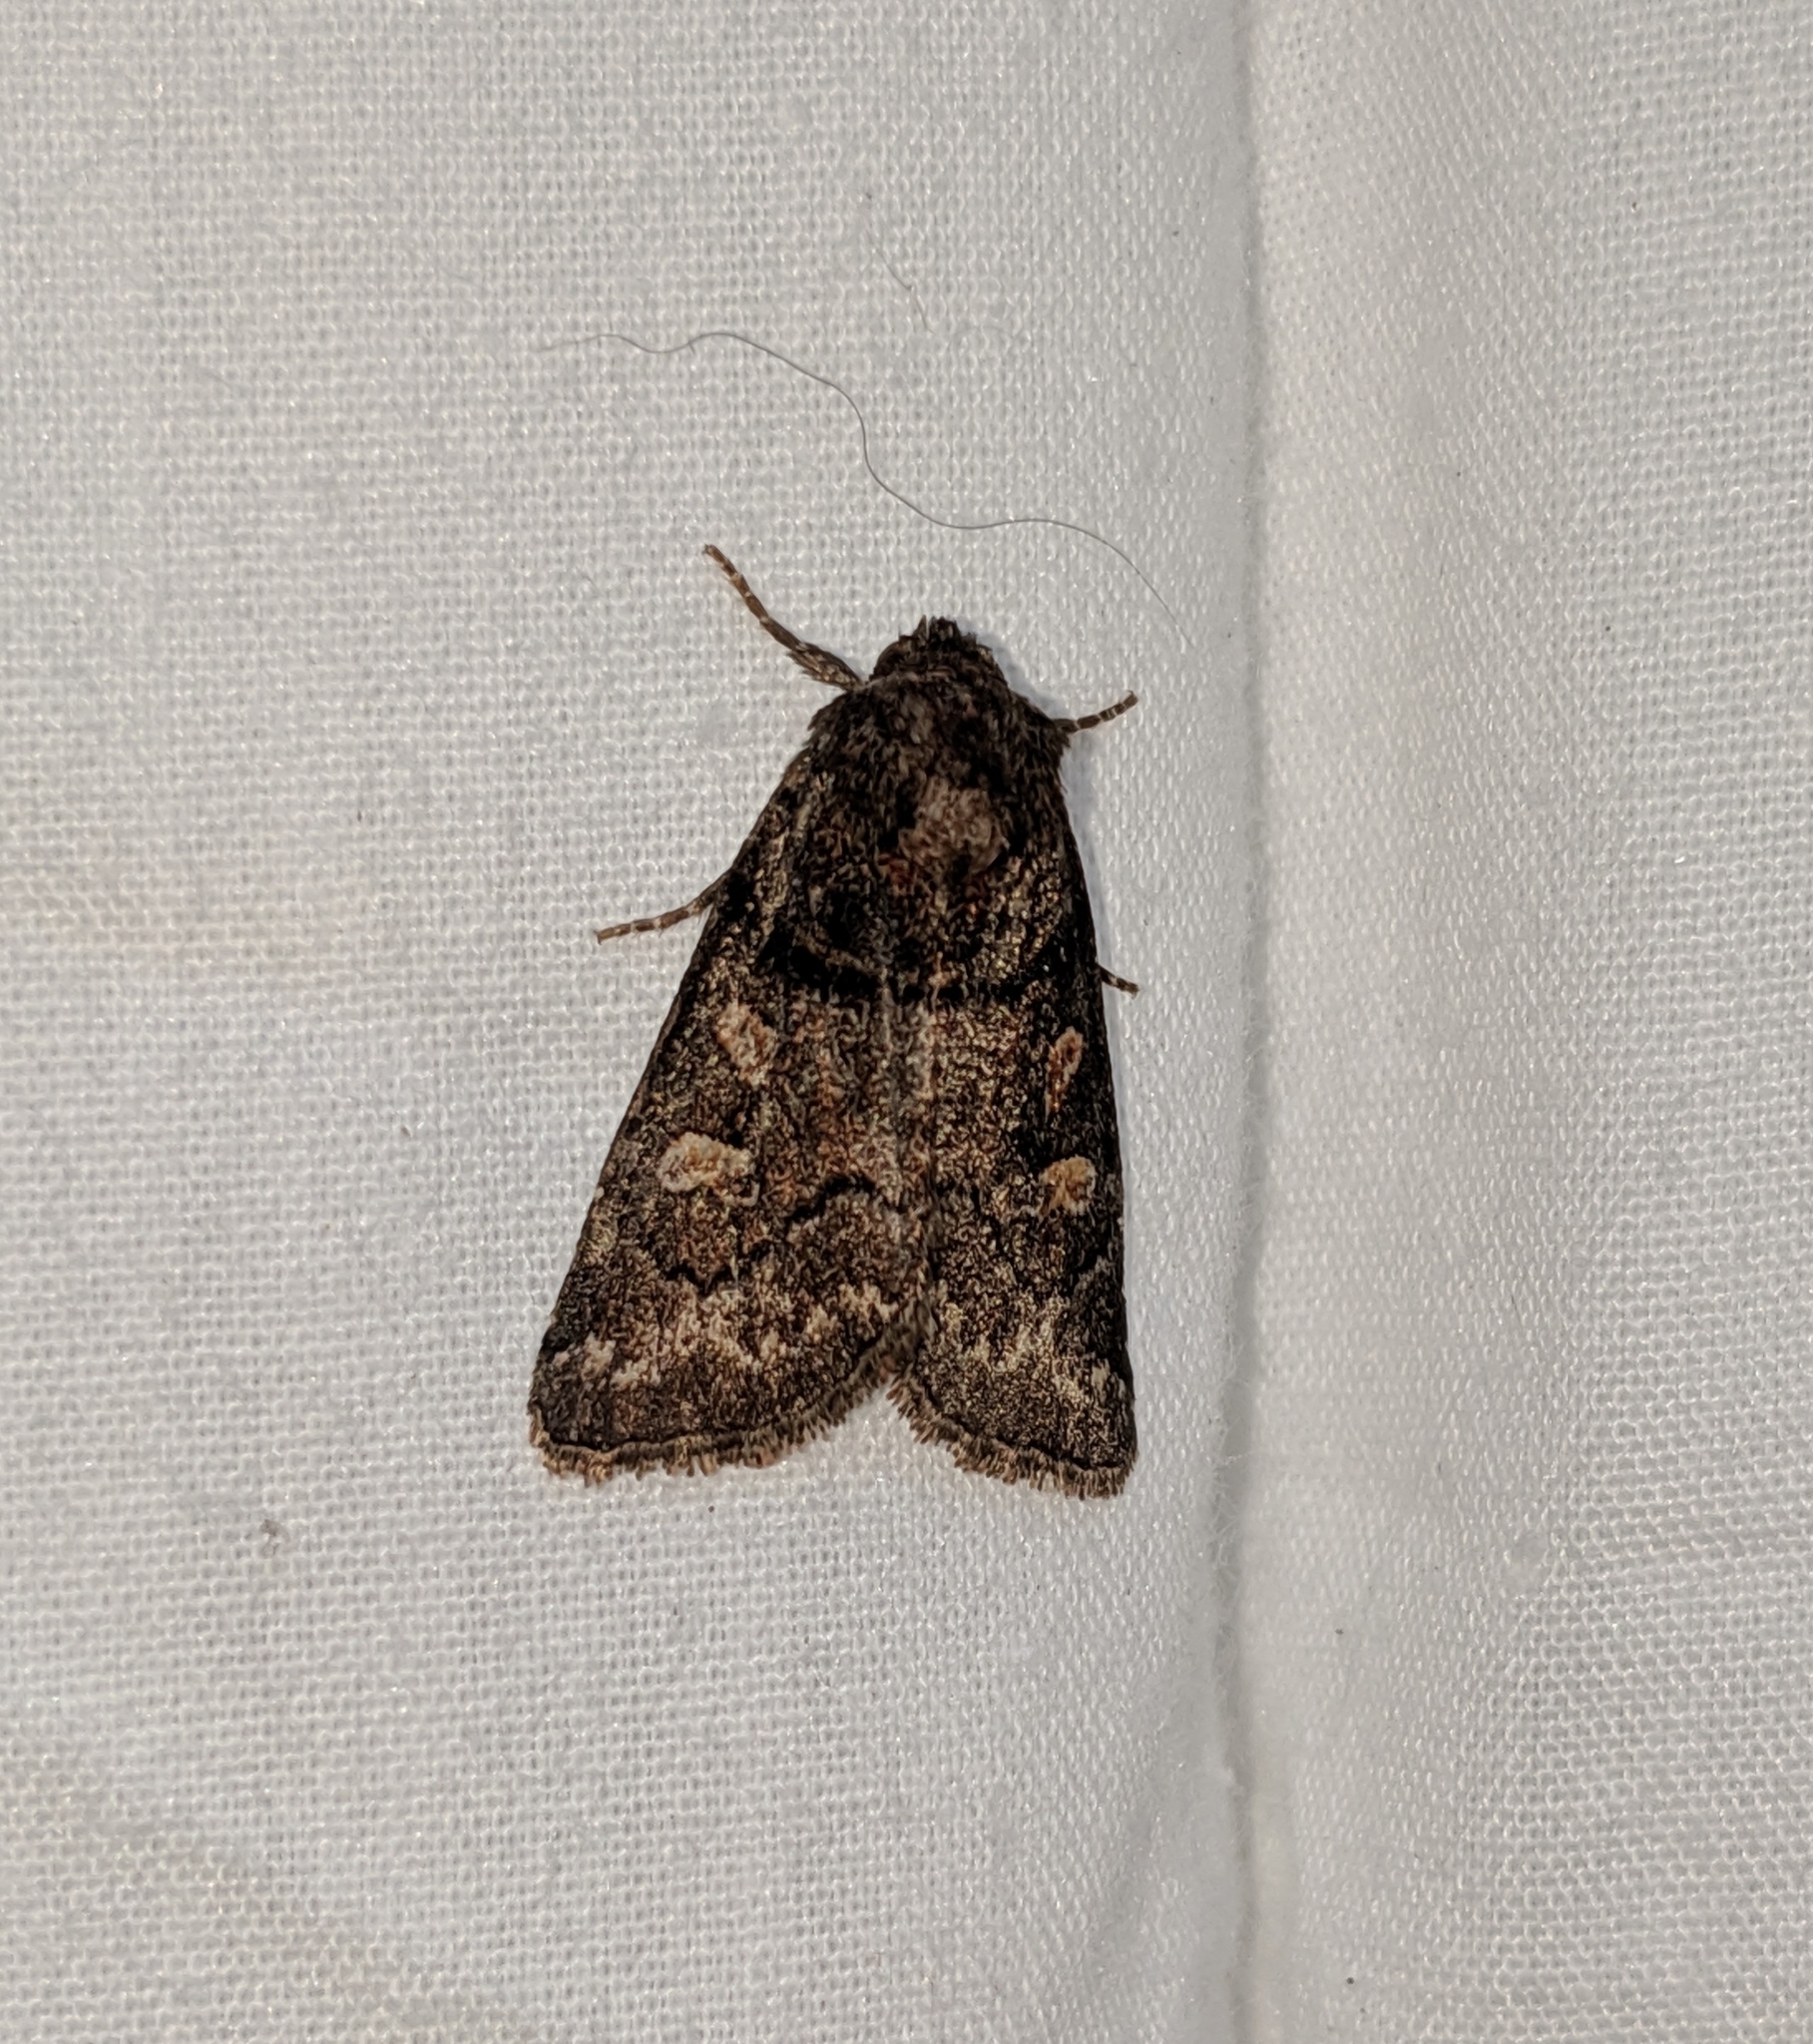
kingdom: Animalia
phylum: Arthropoda
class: Insecta
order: Lepidoptera
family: Noctuidae
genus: Cosmia
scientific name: Cosmia praeacuta
